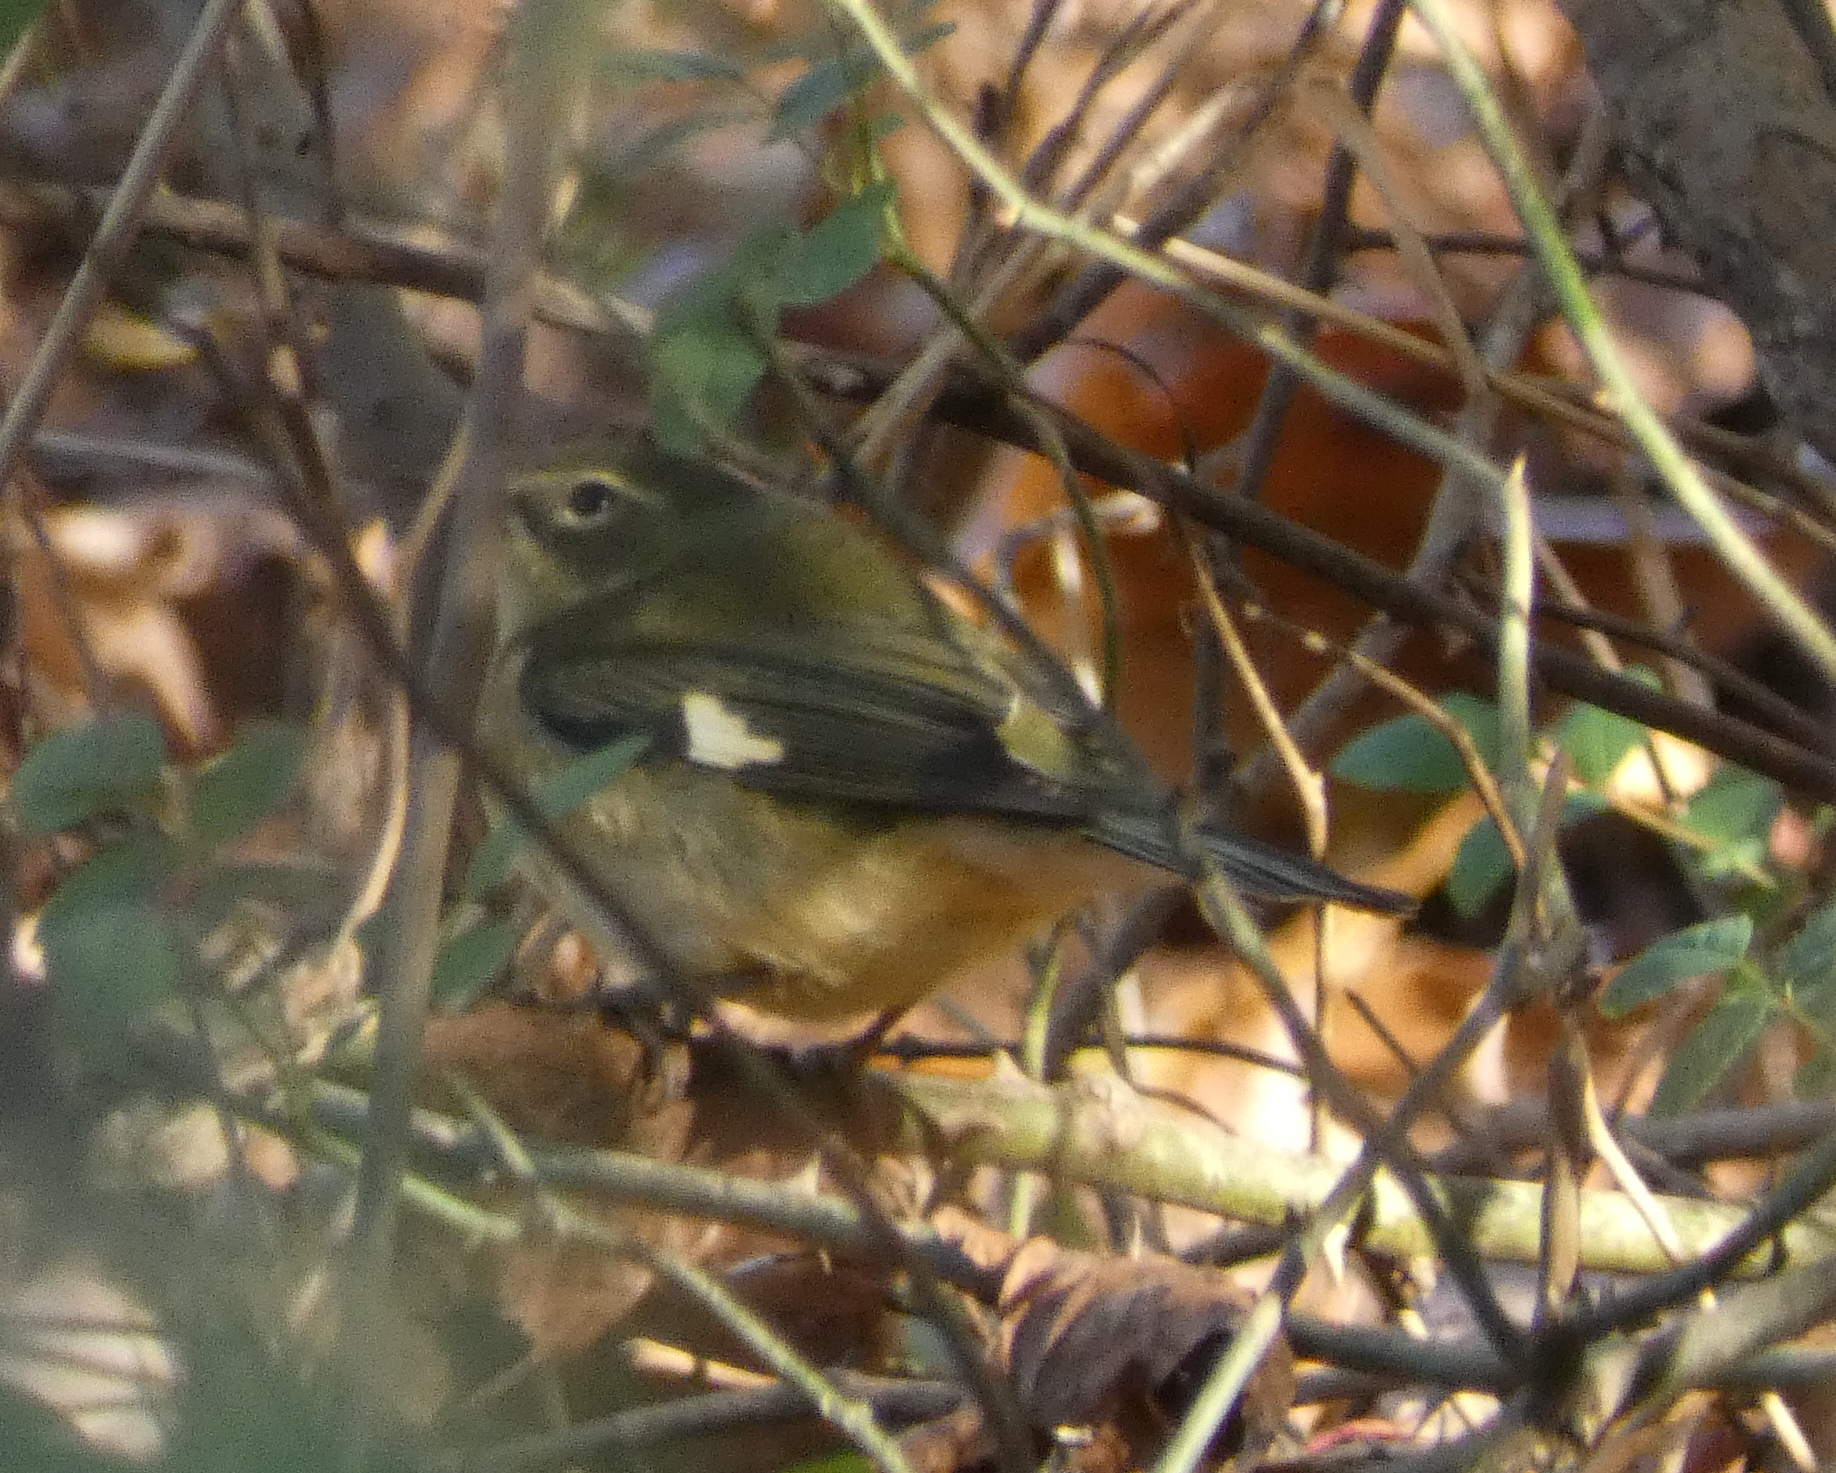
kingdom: Animalia
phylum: Chordata
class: Aves
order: Passeriformes
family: Parulidae
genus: Setophaga
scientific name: Setophaga caerulescens
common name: Black-throated blue warbler
